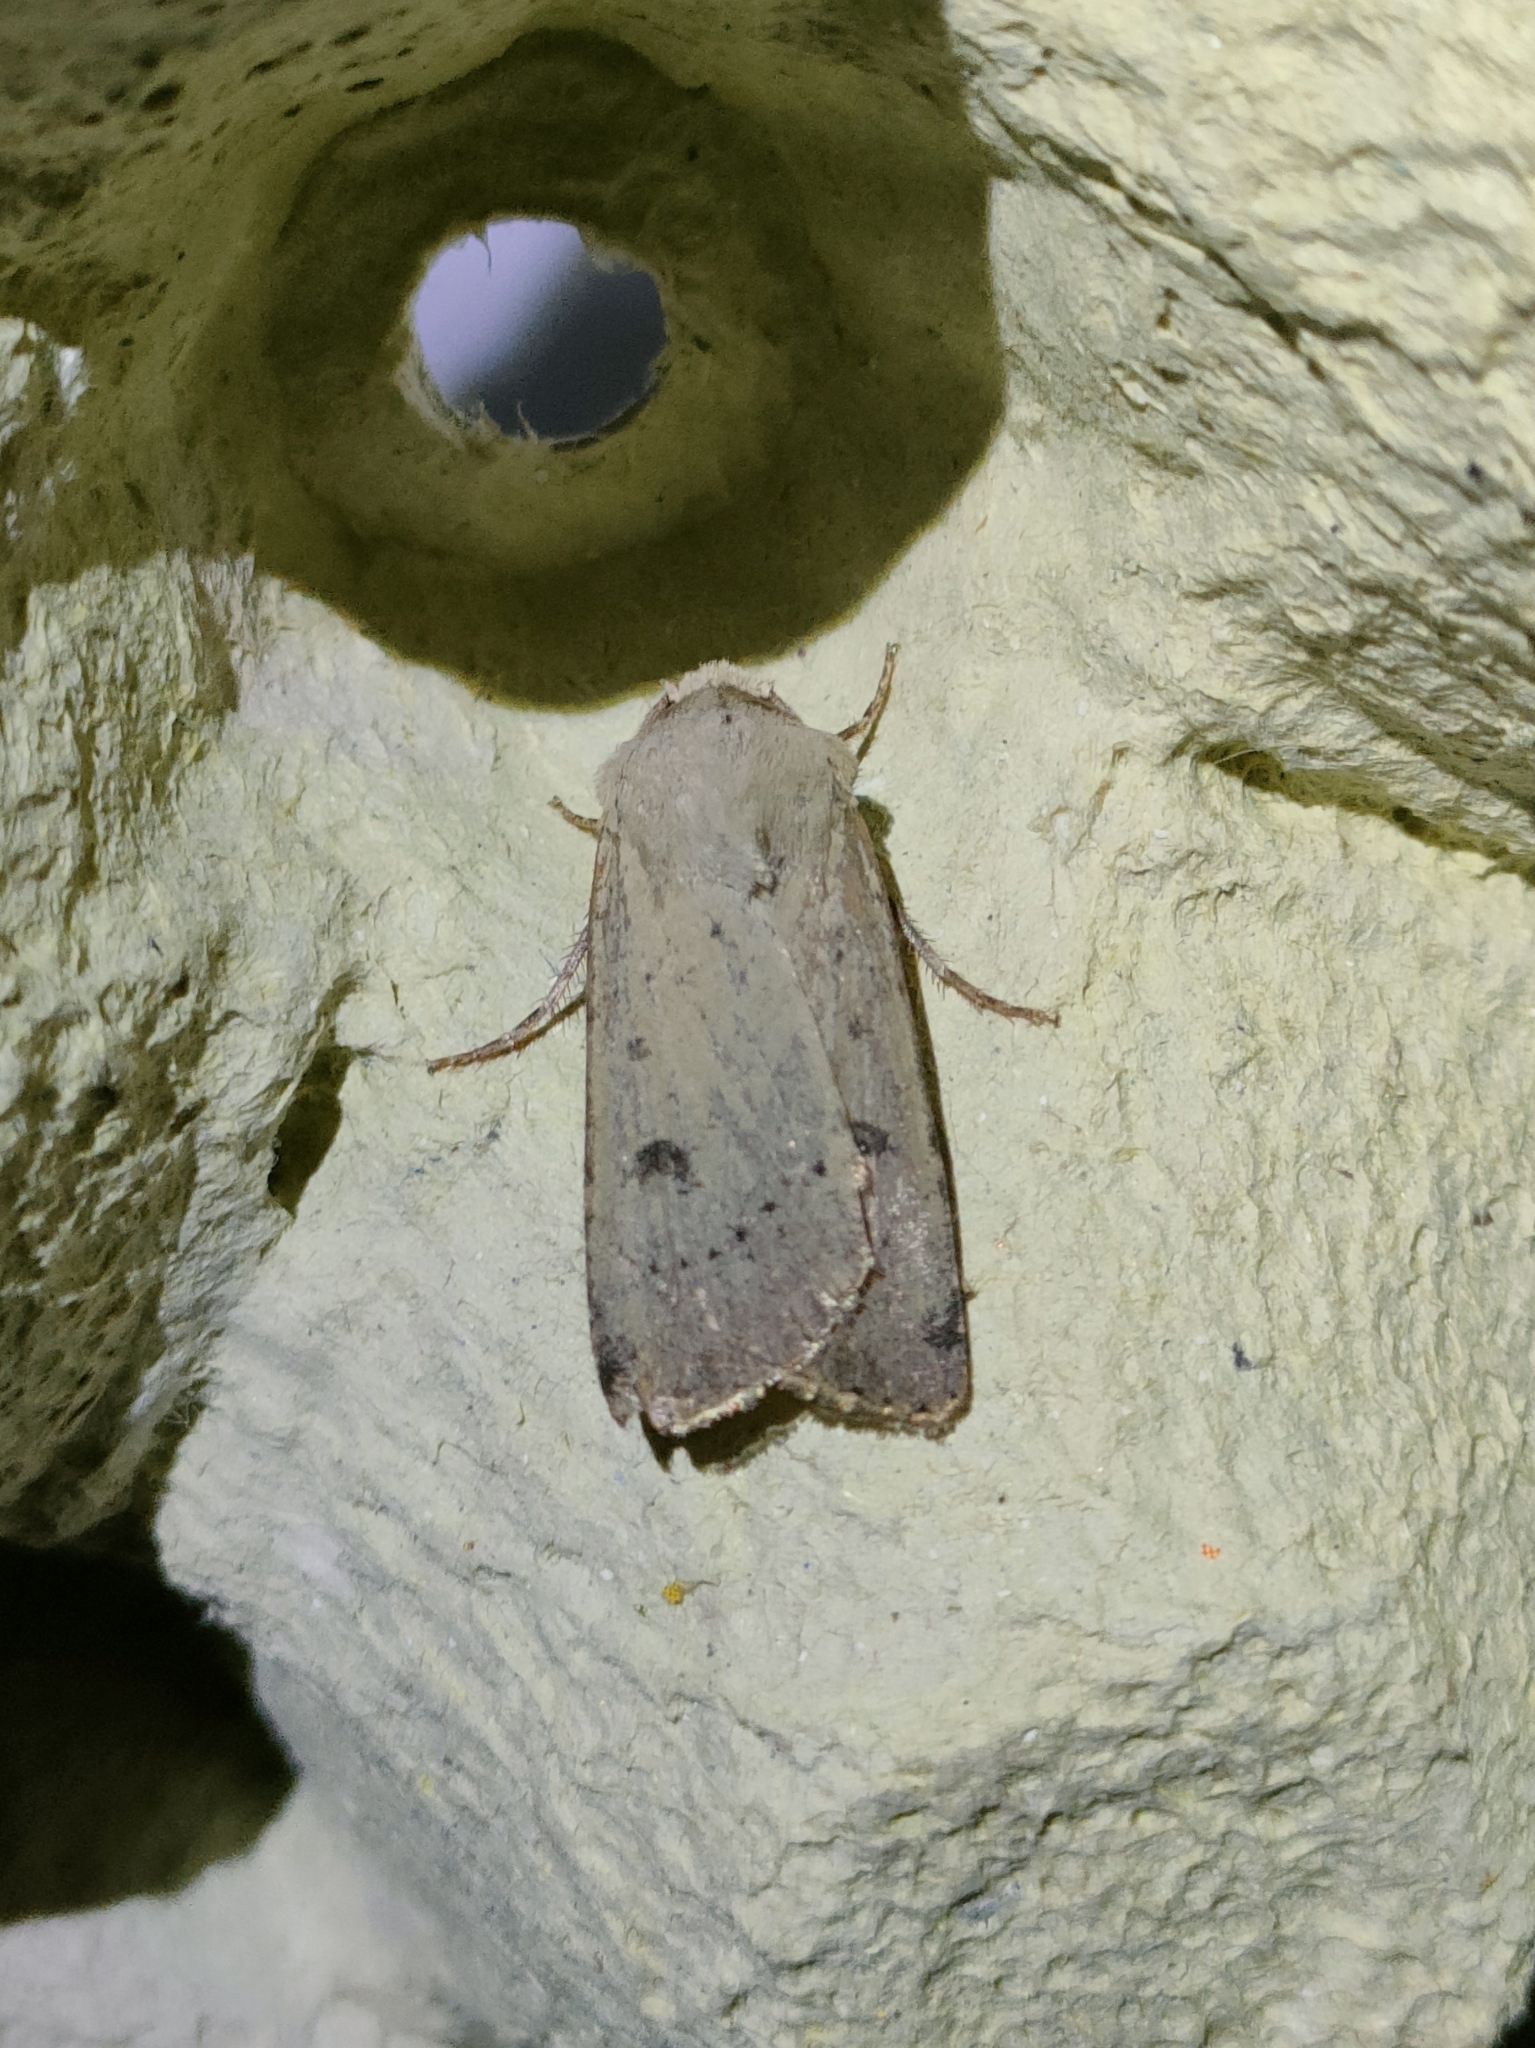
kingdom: Animalia
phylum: Arthropoda
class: Insecta
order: Lepidoptera
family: Noctuidae
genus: Agrotis
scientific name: Agrotis trux
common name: Crescent dart
